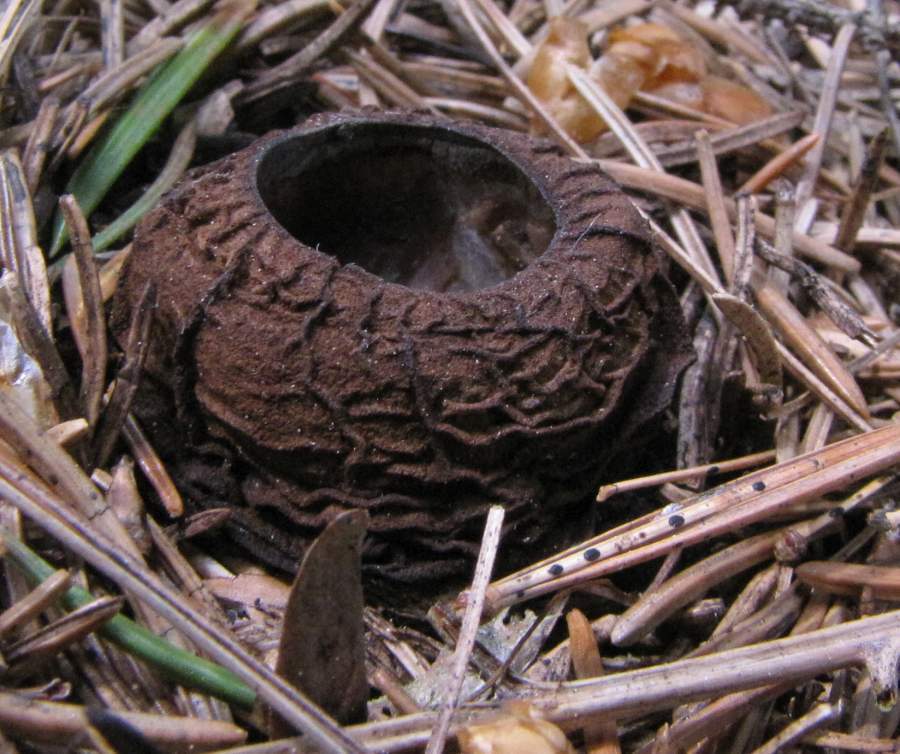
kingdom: Fungi
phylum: Ascomycota
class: Pezizomycetes
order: Pezizales
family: Sarcosomataceae
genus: Sarcosoma
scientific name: Sarcosoma globosum
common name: Charred-pancake cup
